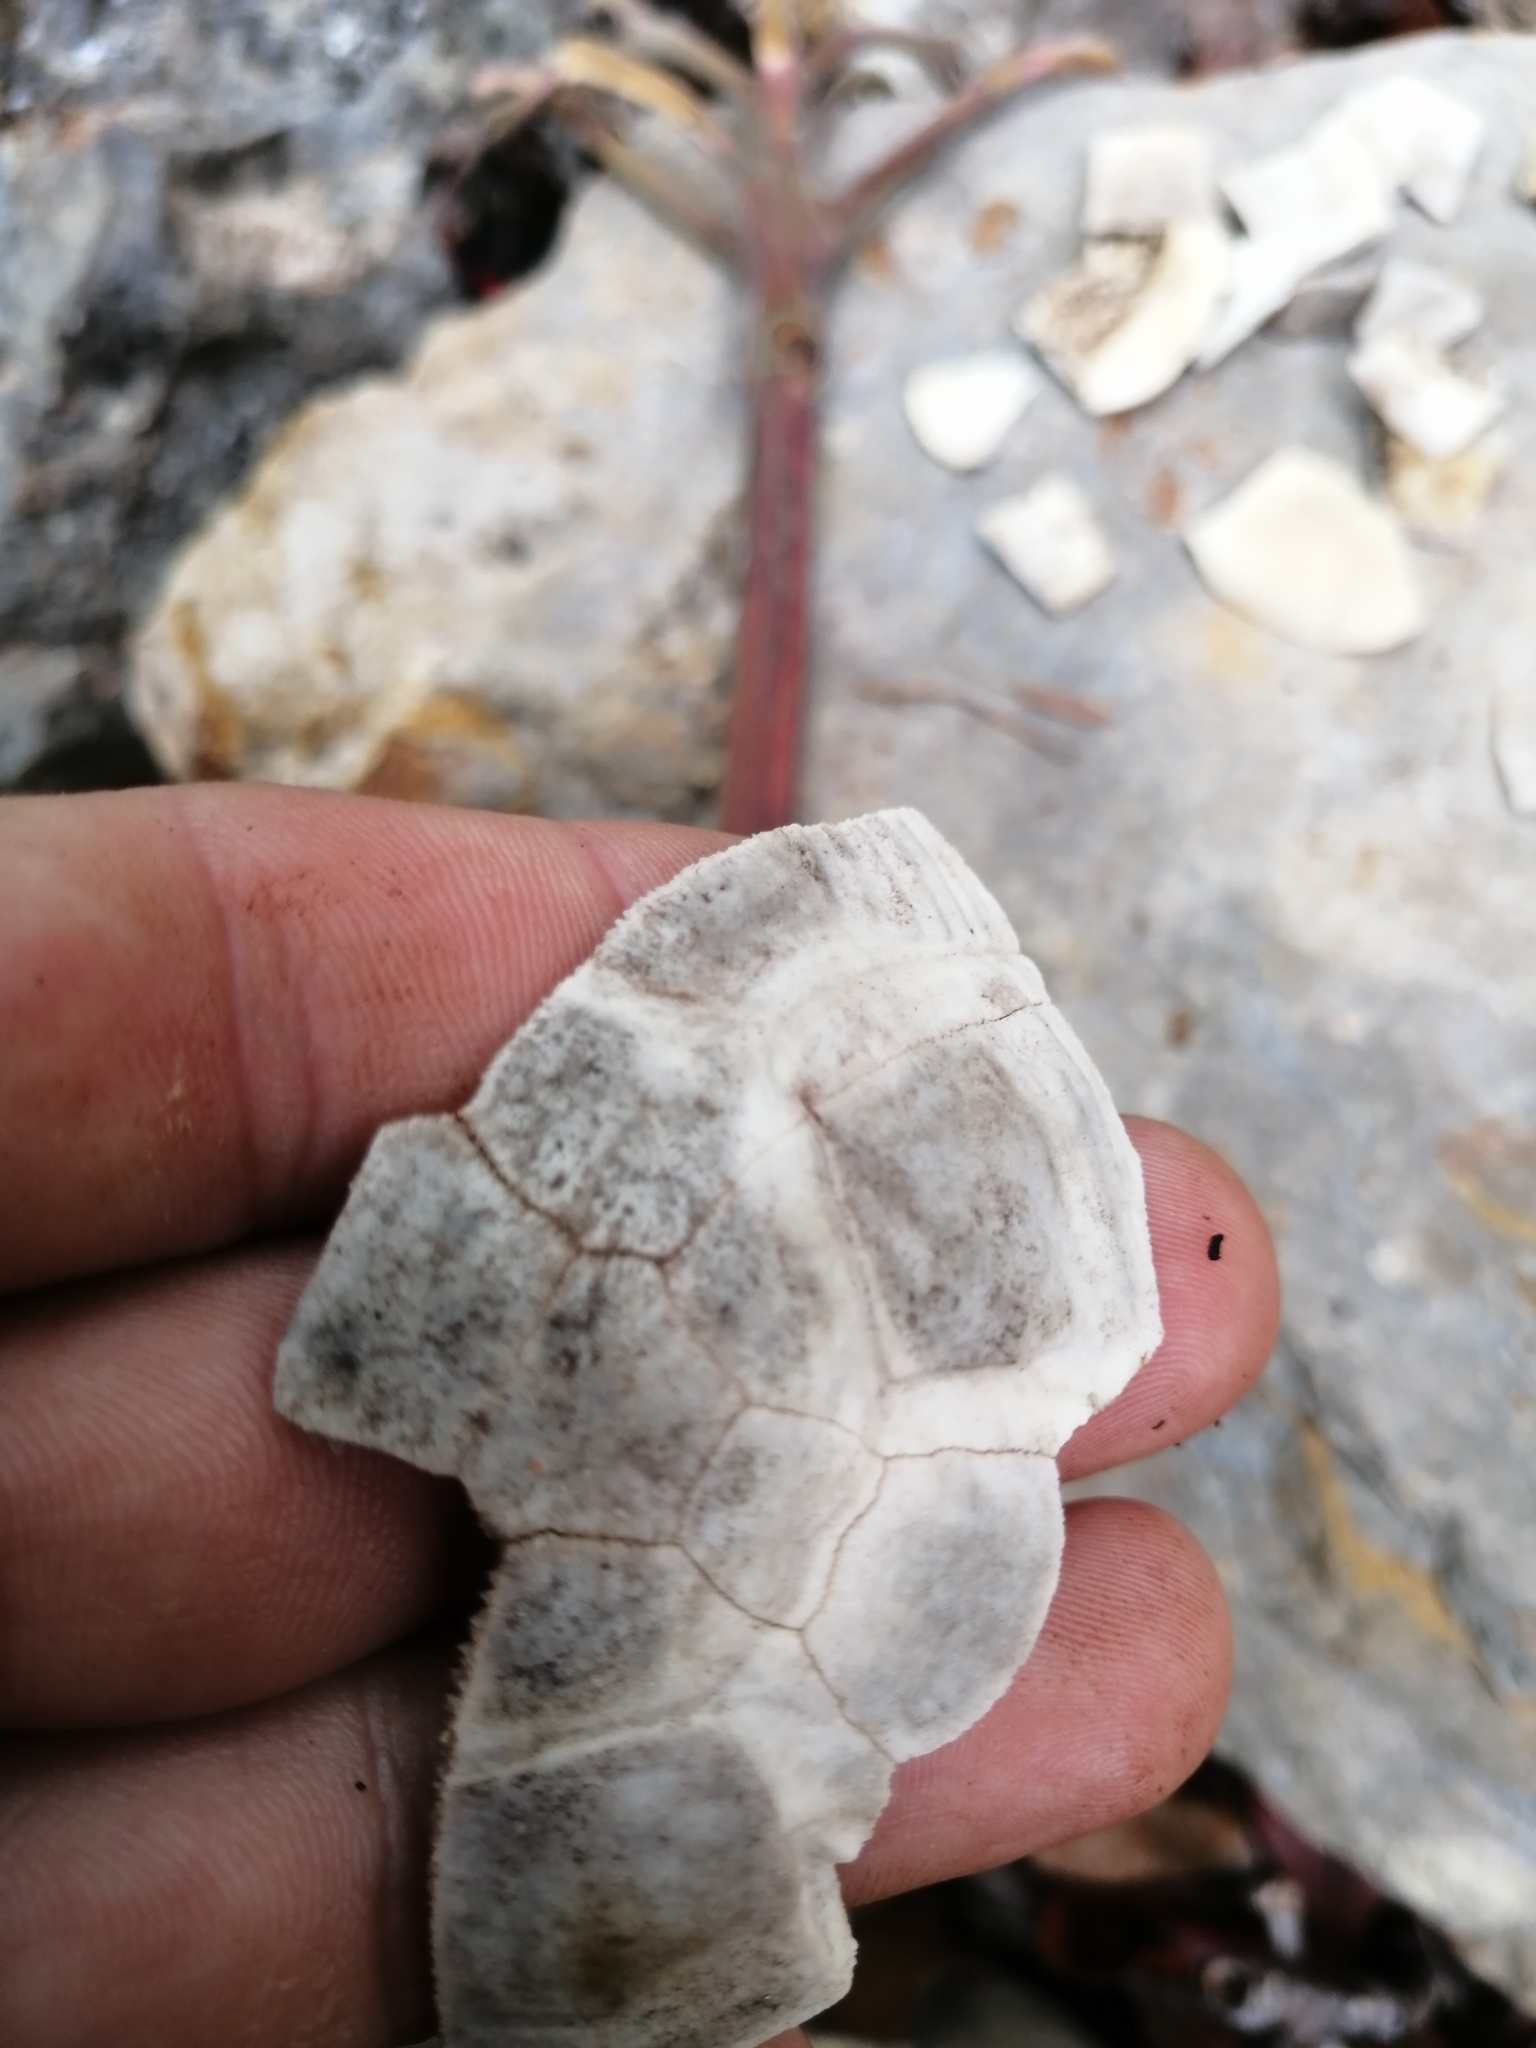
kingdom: Animalia
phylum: Chordata
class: Testudines
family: Geoemydidae
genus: Rhinoclemmys
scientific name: Rhinoclemmys areolata
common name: Furrowed wood turtle
